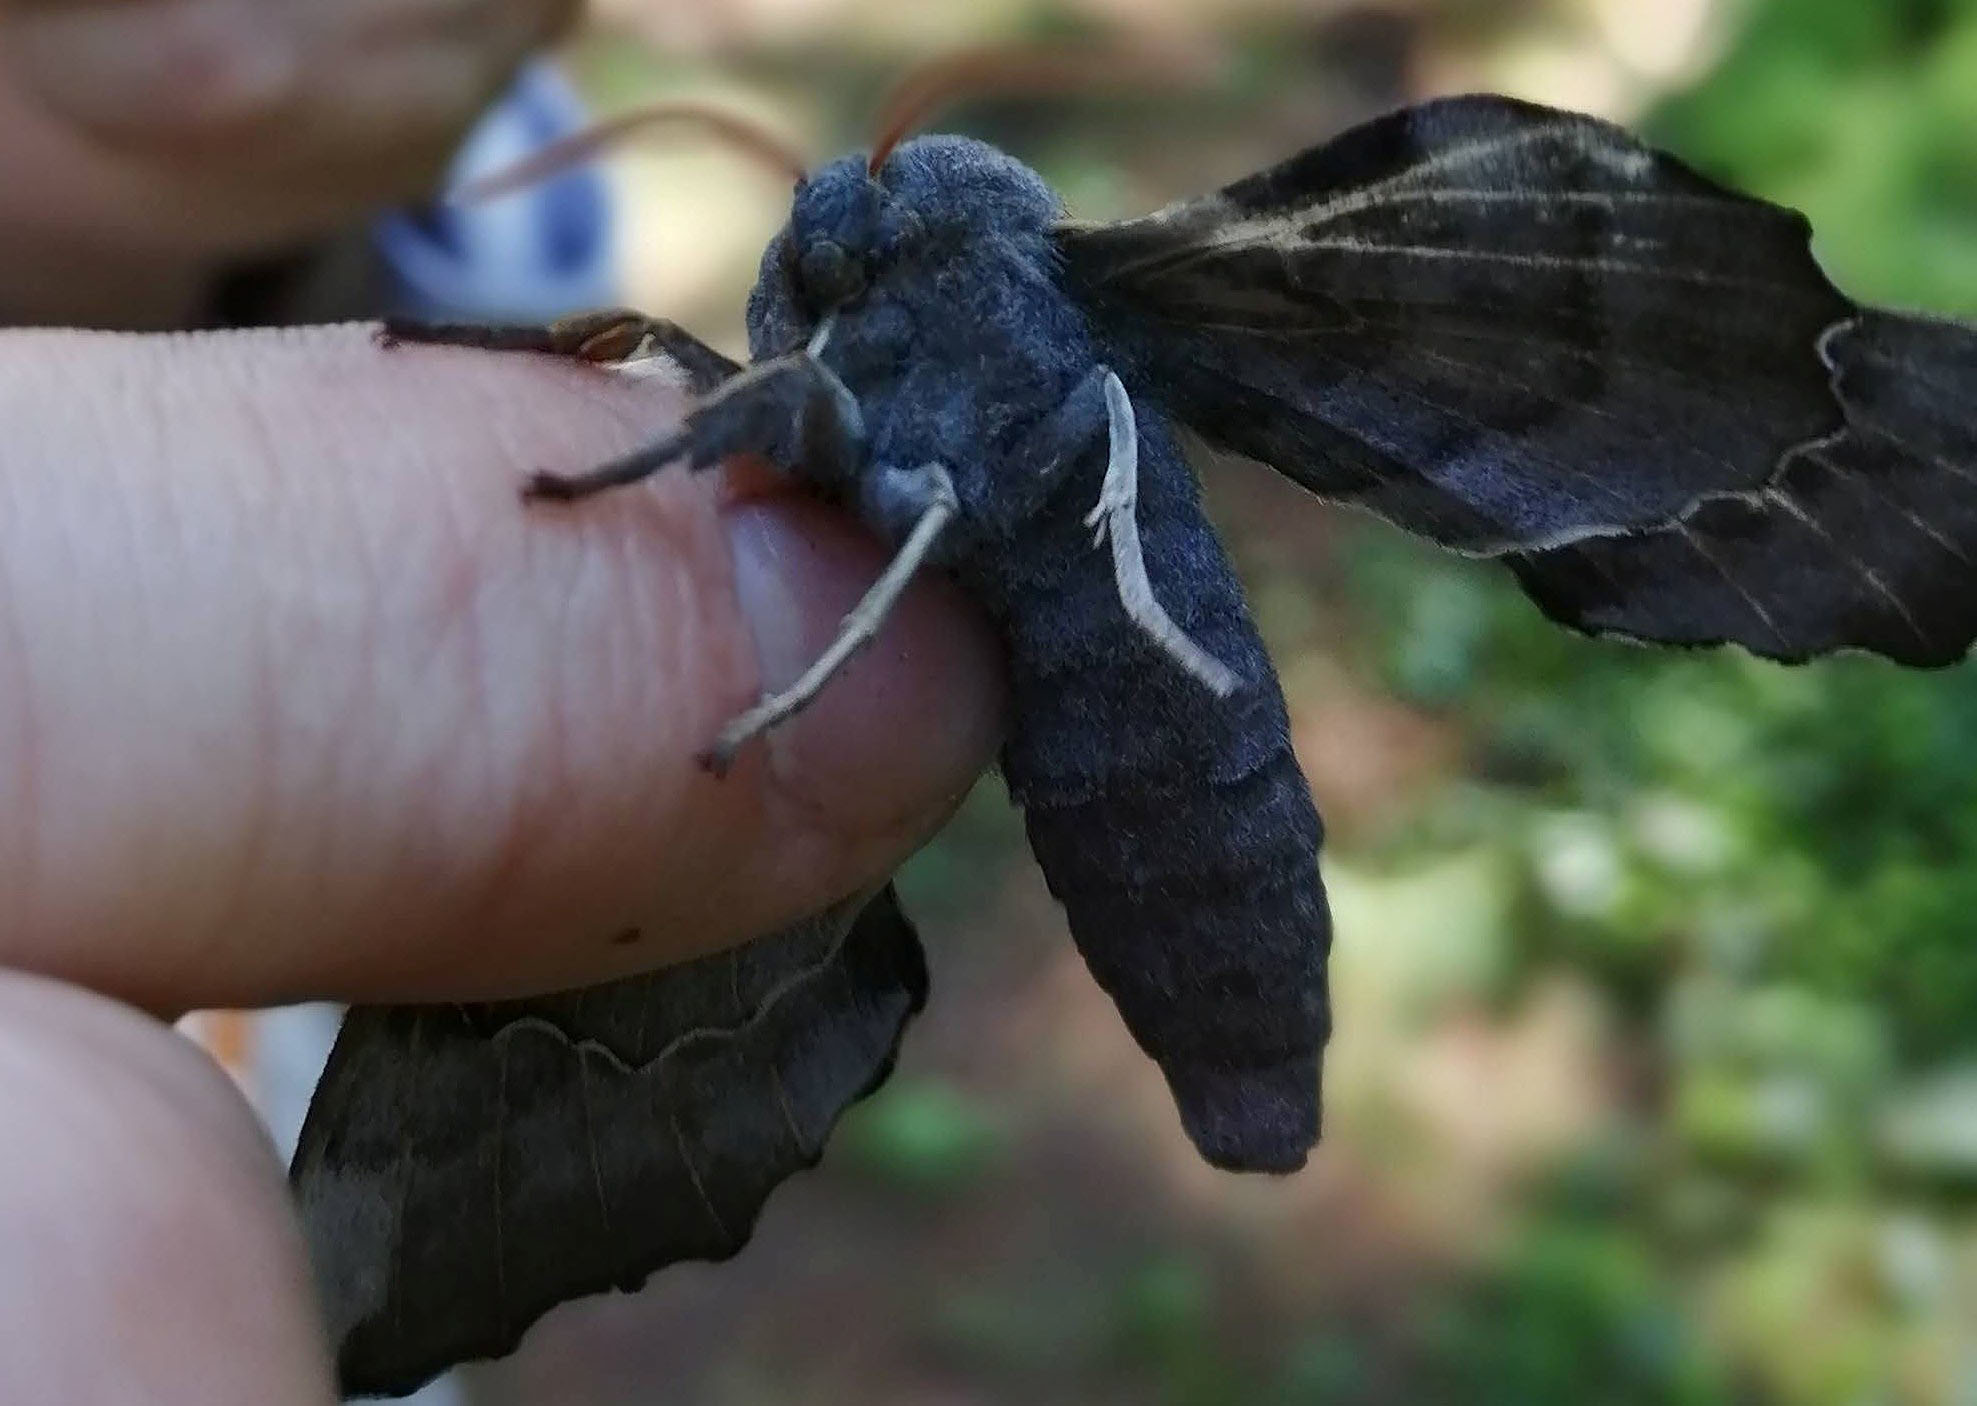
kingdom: Animalia
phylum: Arthropoda
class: Insecta
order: Lepidoptera
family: Sphingidae
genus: Laothoe
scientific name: Laothoe populi
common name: Poplar hawk-moth
